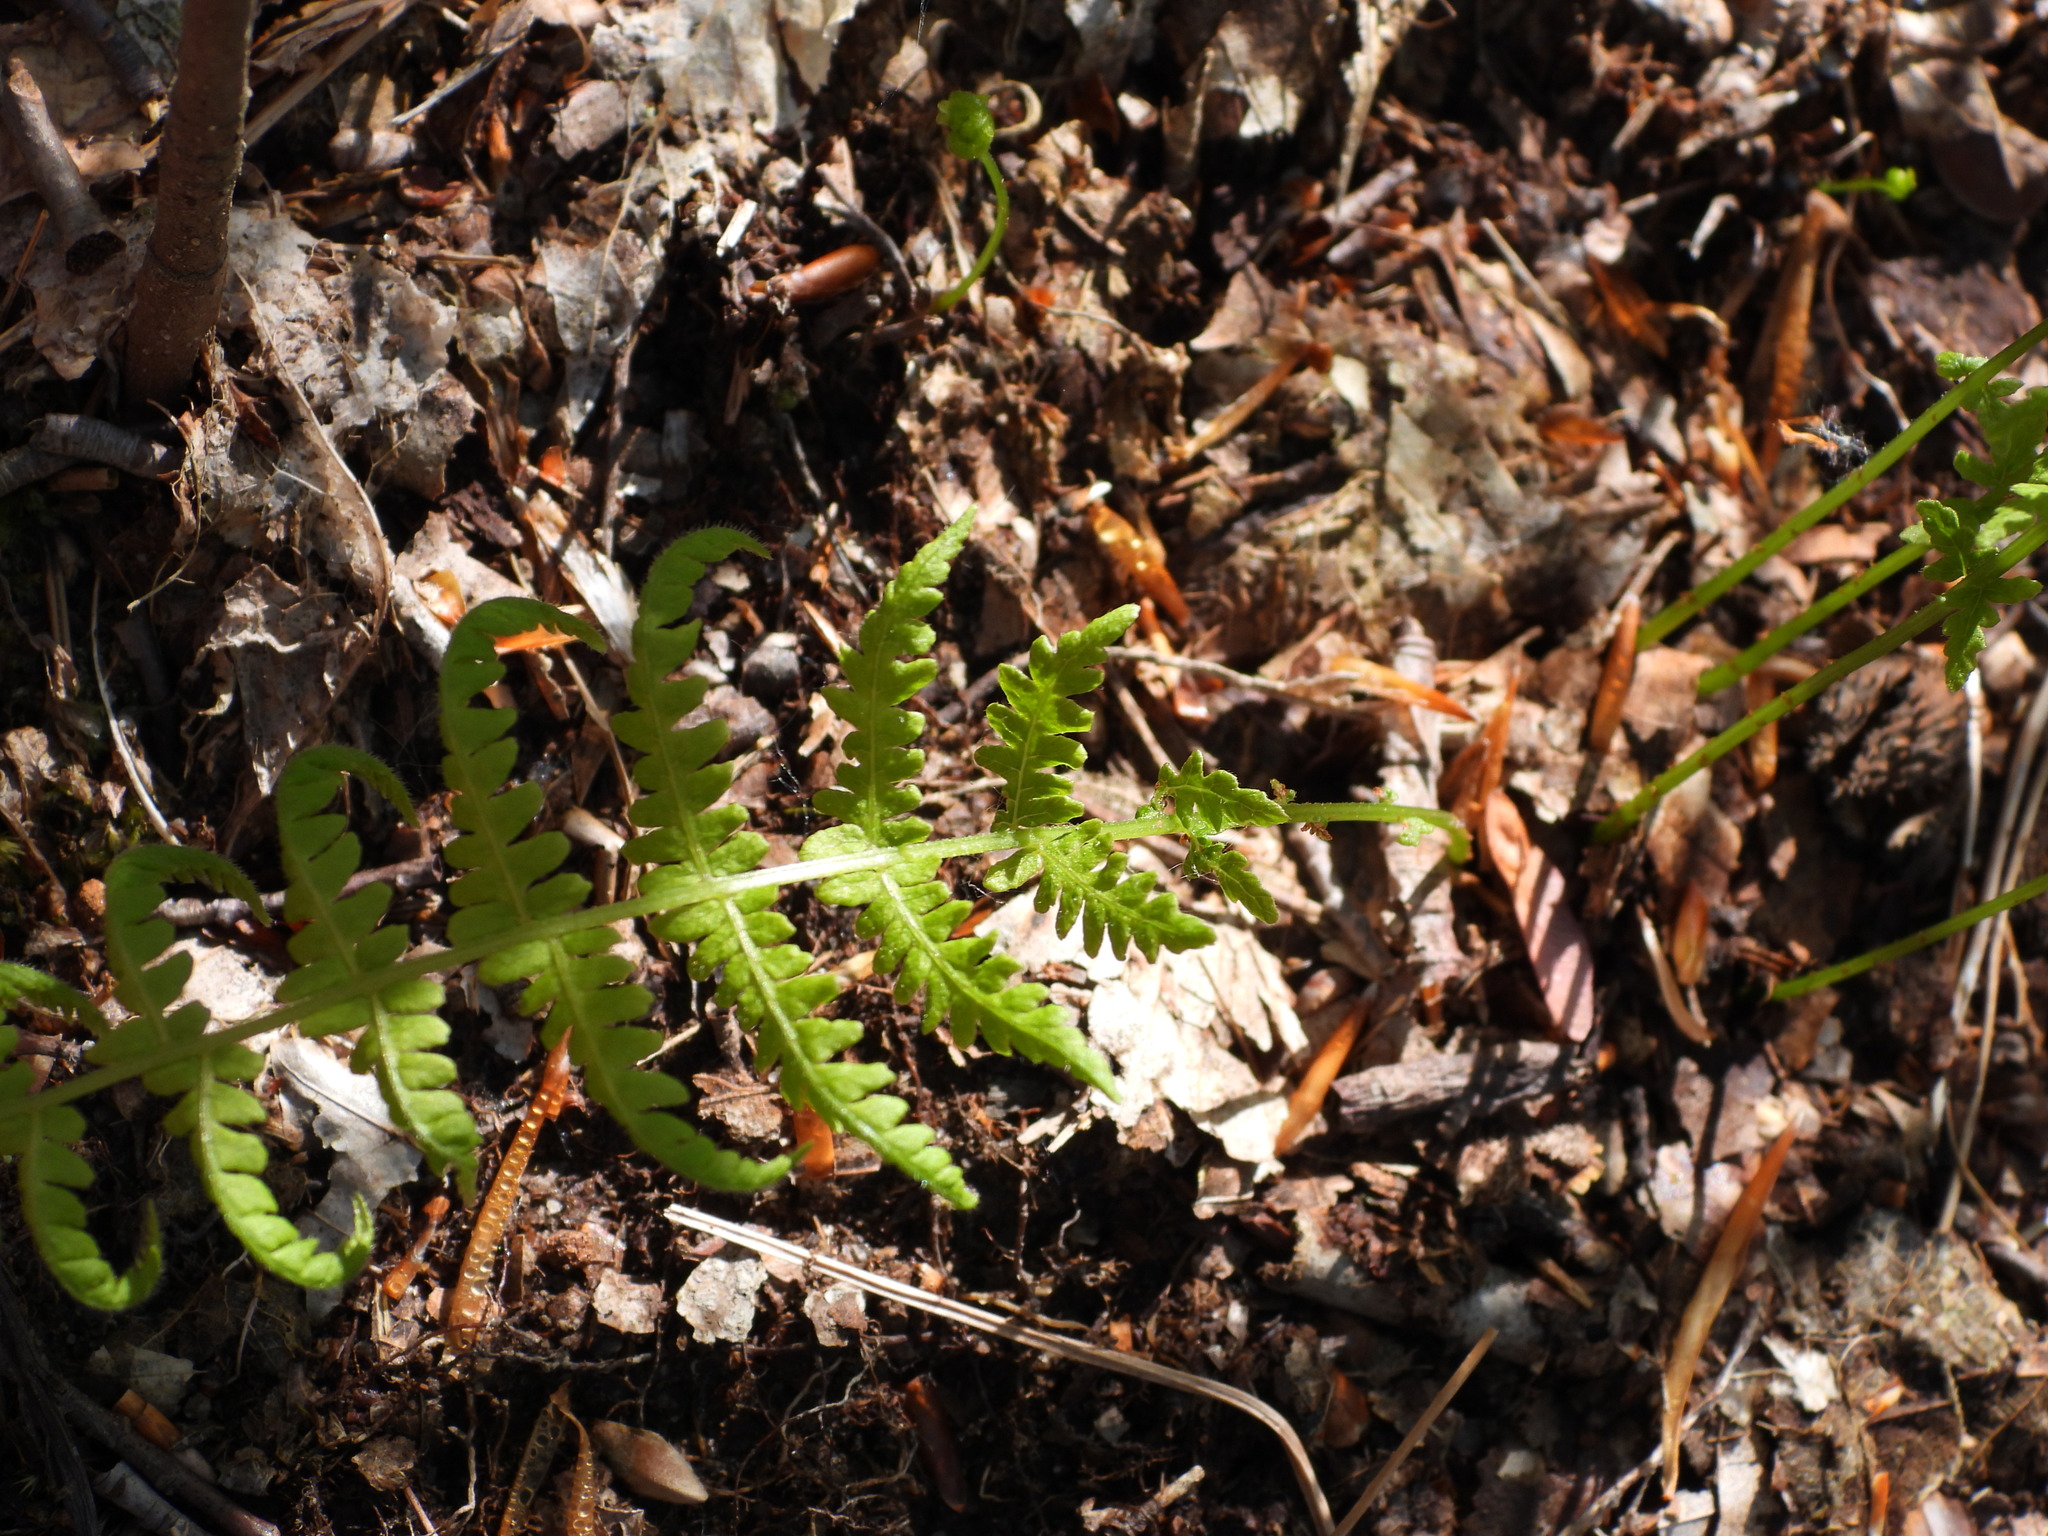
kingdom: Plantae
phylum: Tracheophyta
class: Polypodiopsida
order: Polypodiales
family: Thelypteridaceae
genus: Amauropelta
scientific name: Amauropelta noveboracensis
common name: New york fern
